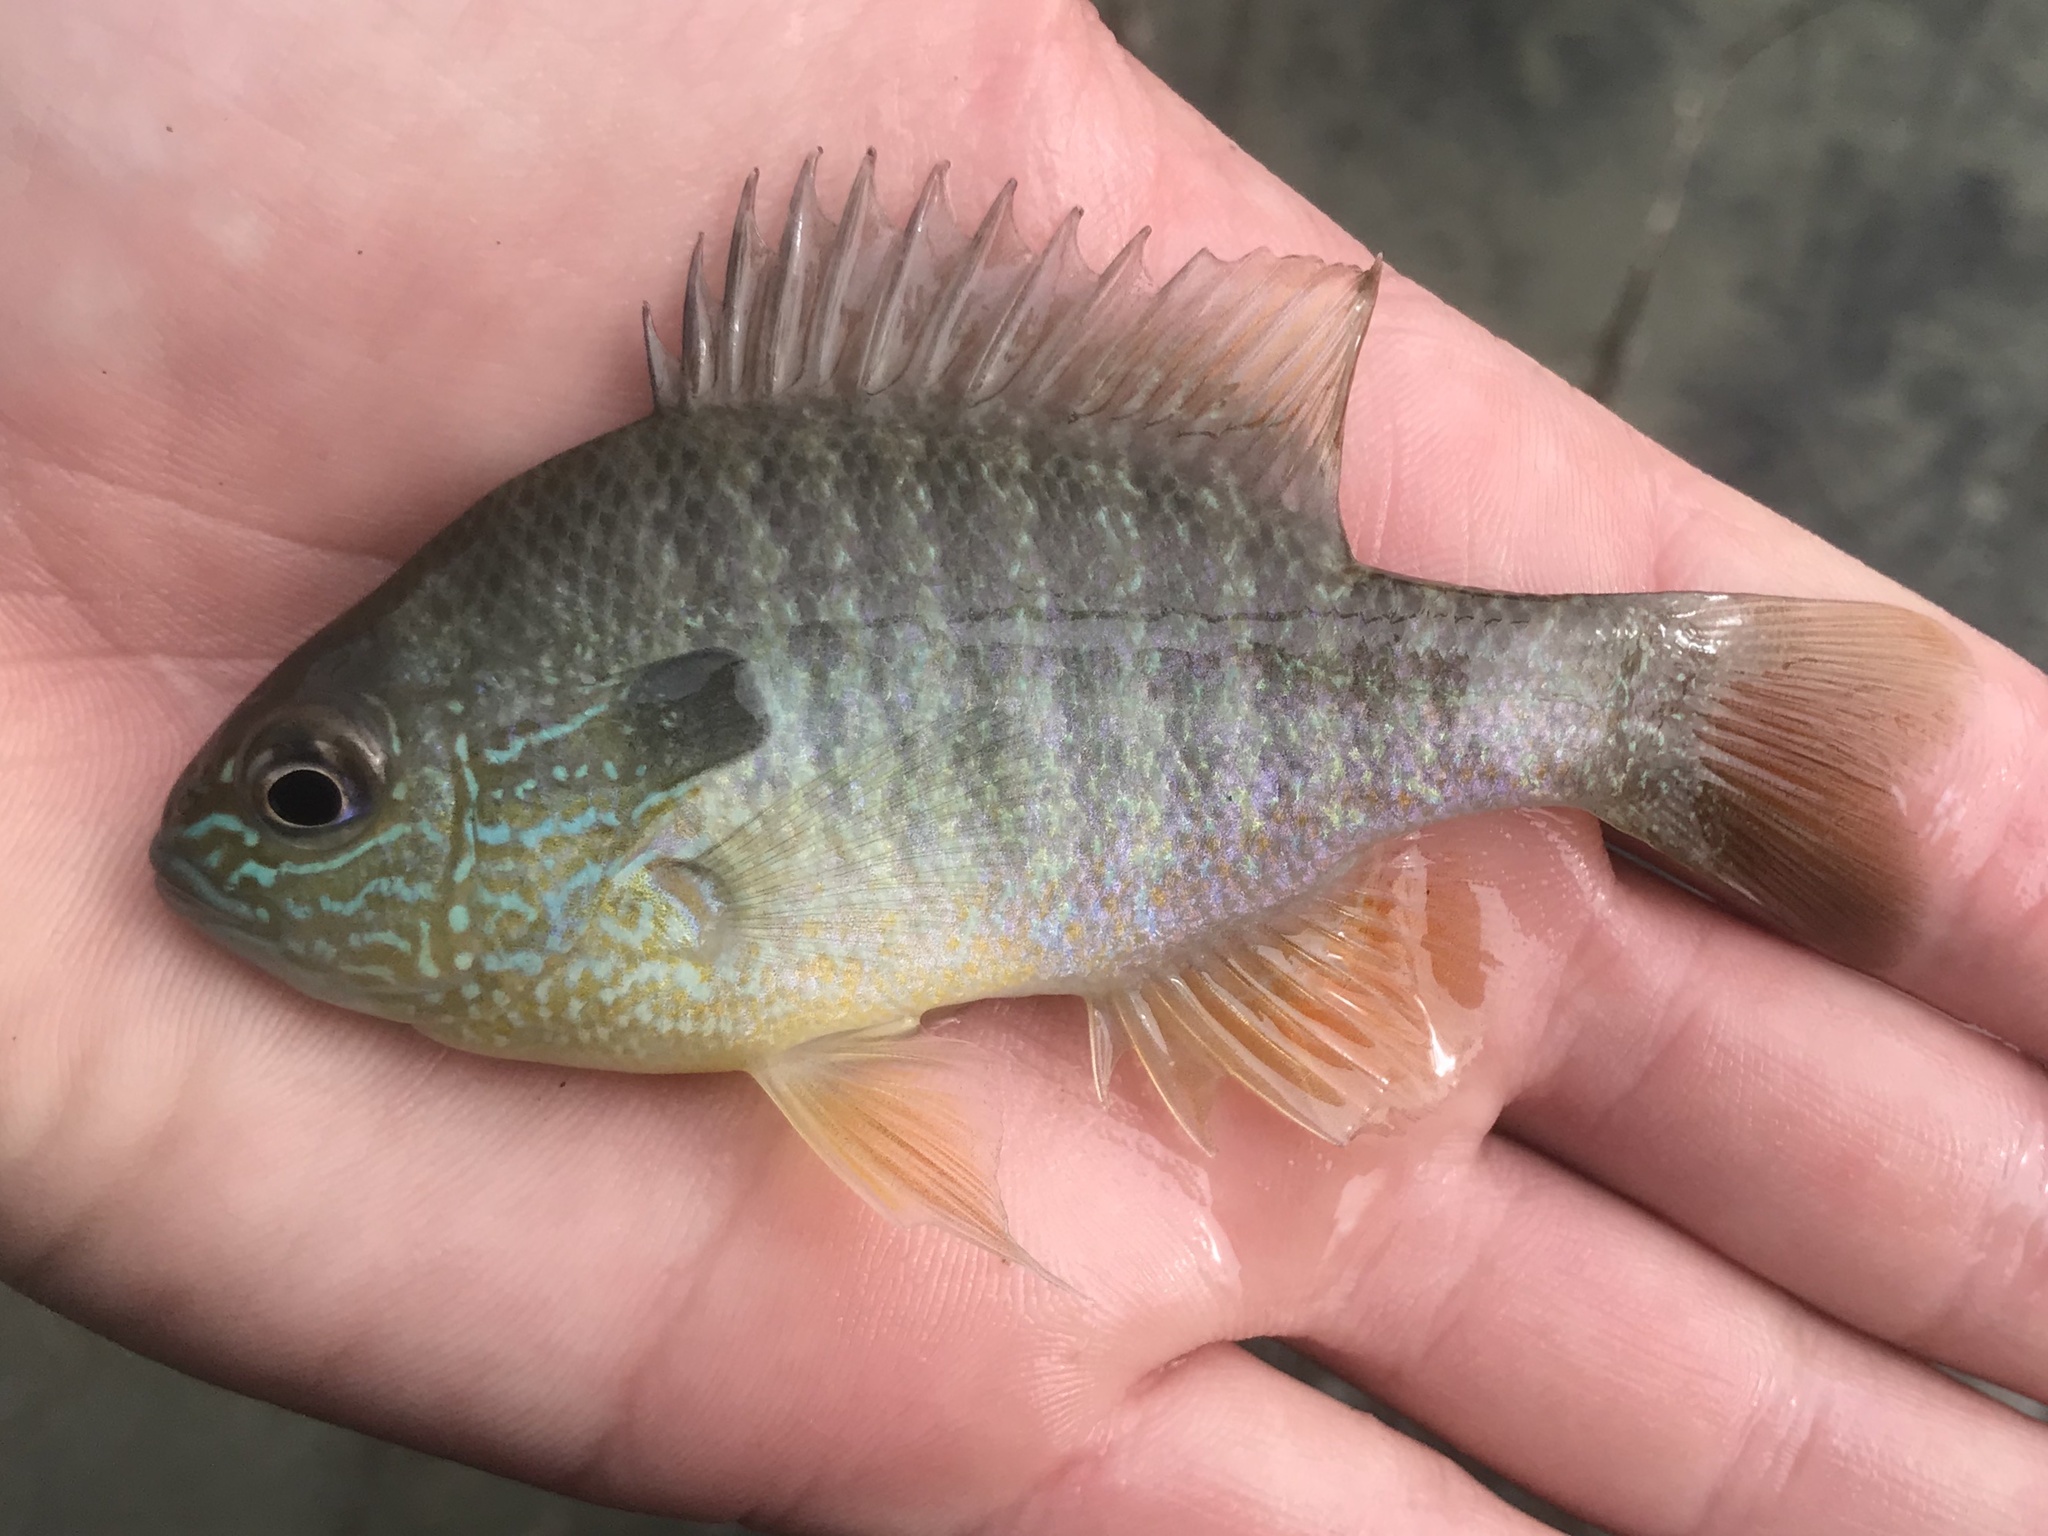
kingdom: Animalia
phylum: Chordata
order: Perciformes
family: Centrarchidae
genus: Lepomis
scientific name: Lepomis megalotis
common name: Longear sunfish
